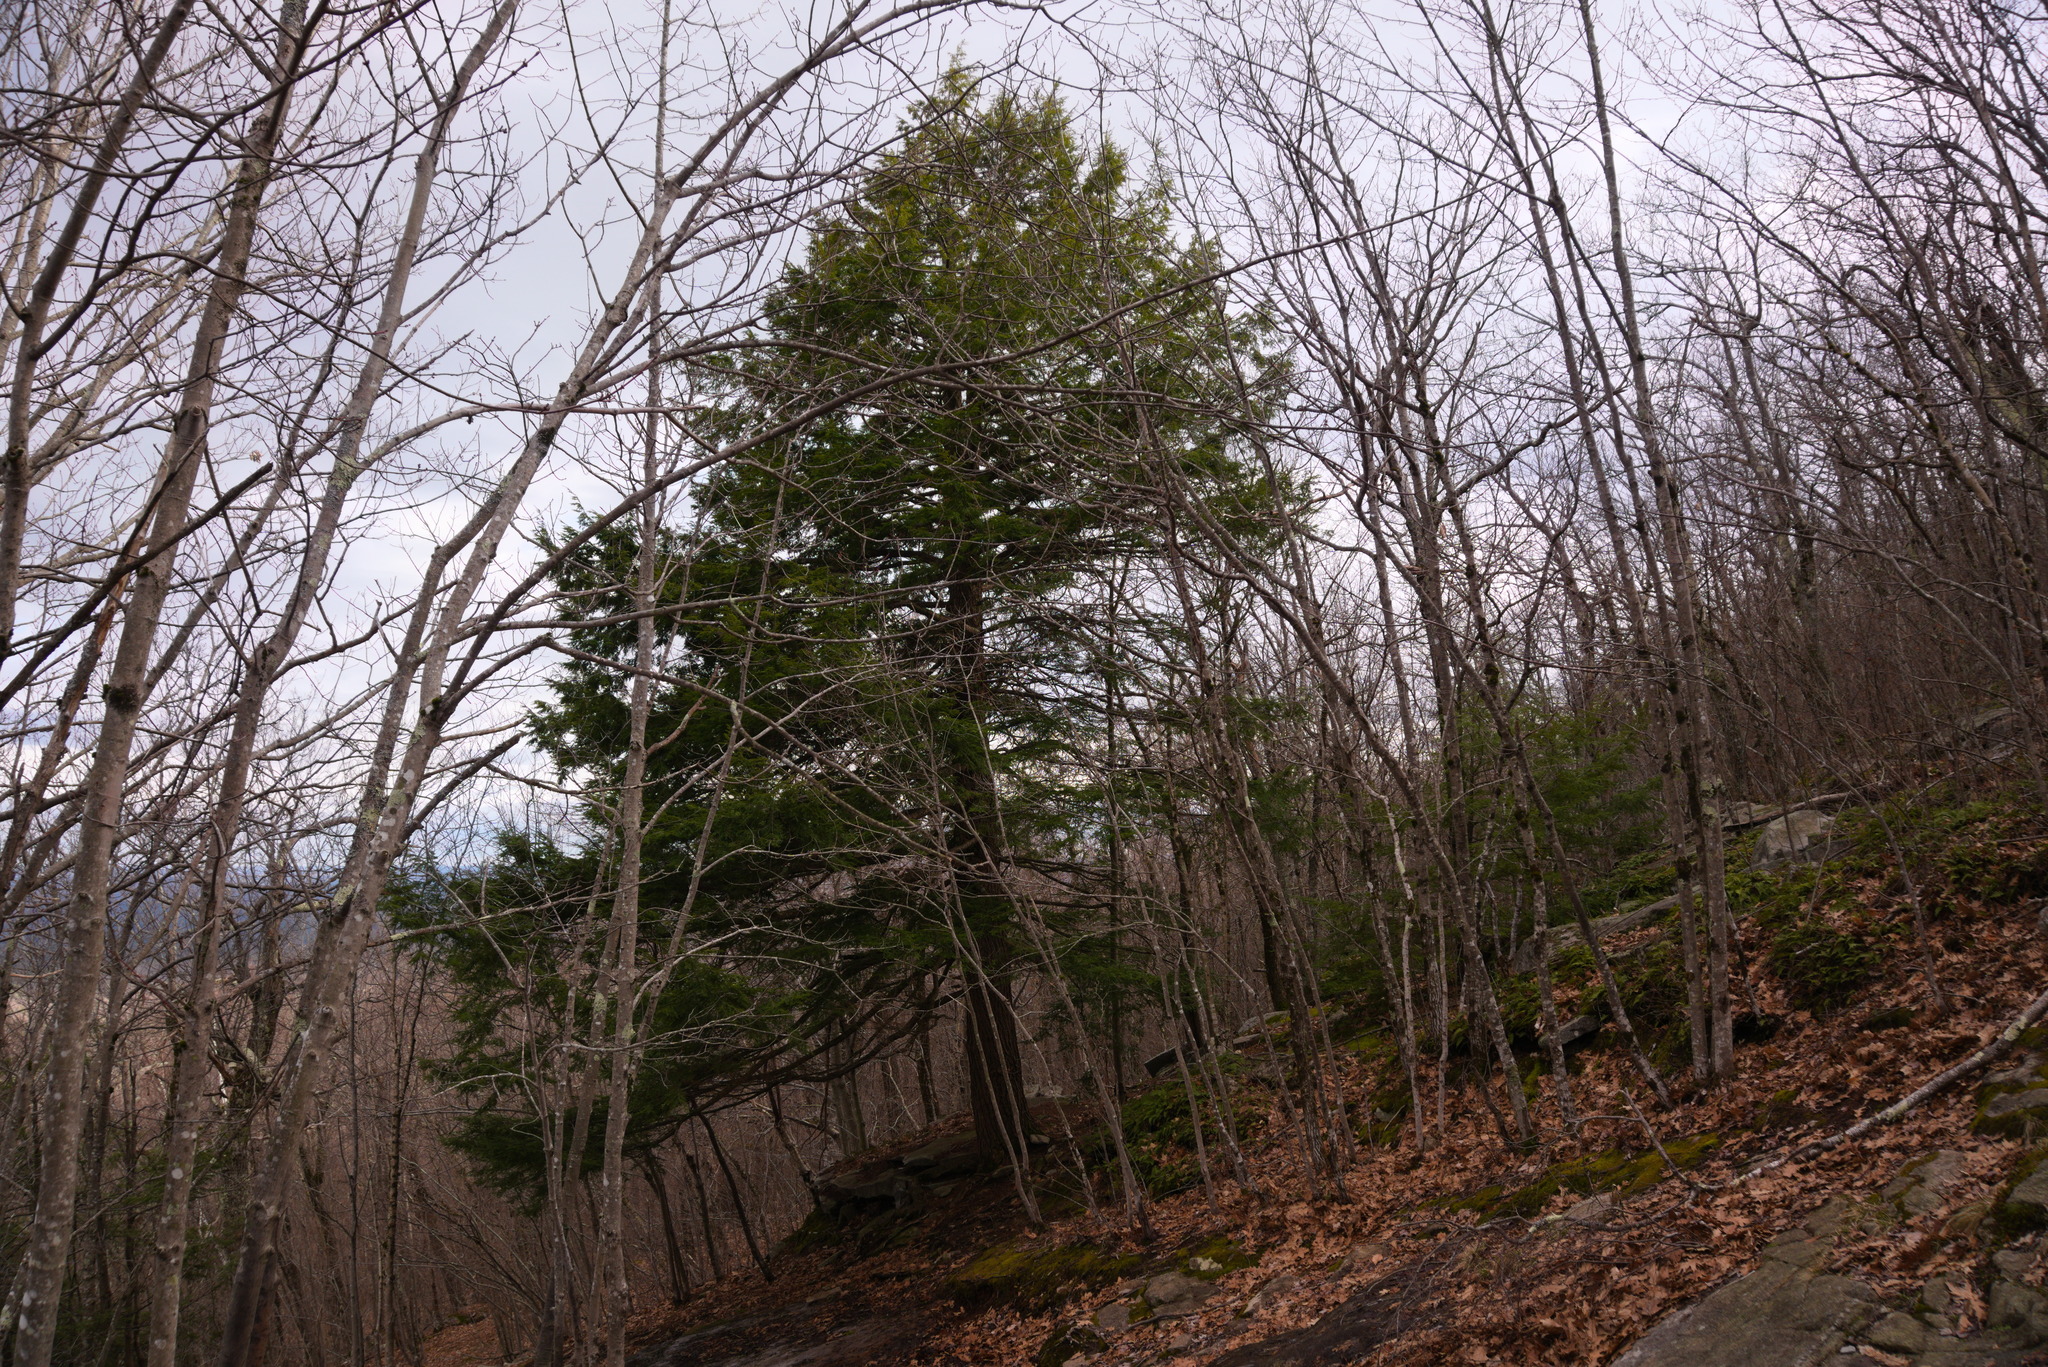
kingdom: Plantae
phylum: Tracheophyta
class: Pinopsida
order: Pinales
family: Pinaceae
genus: Tsuga
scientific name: Tsuga canadensis
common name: Eastern hemlock
